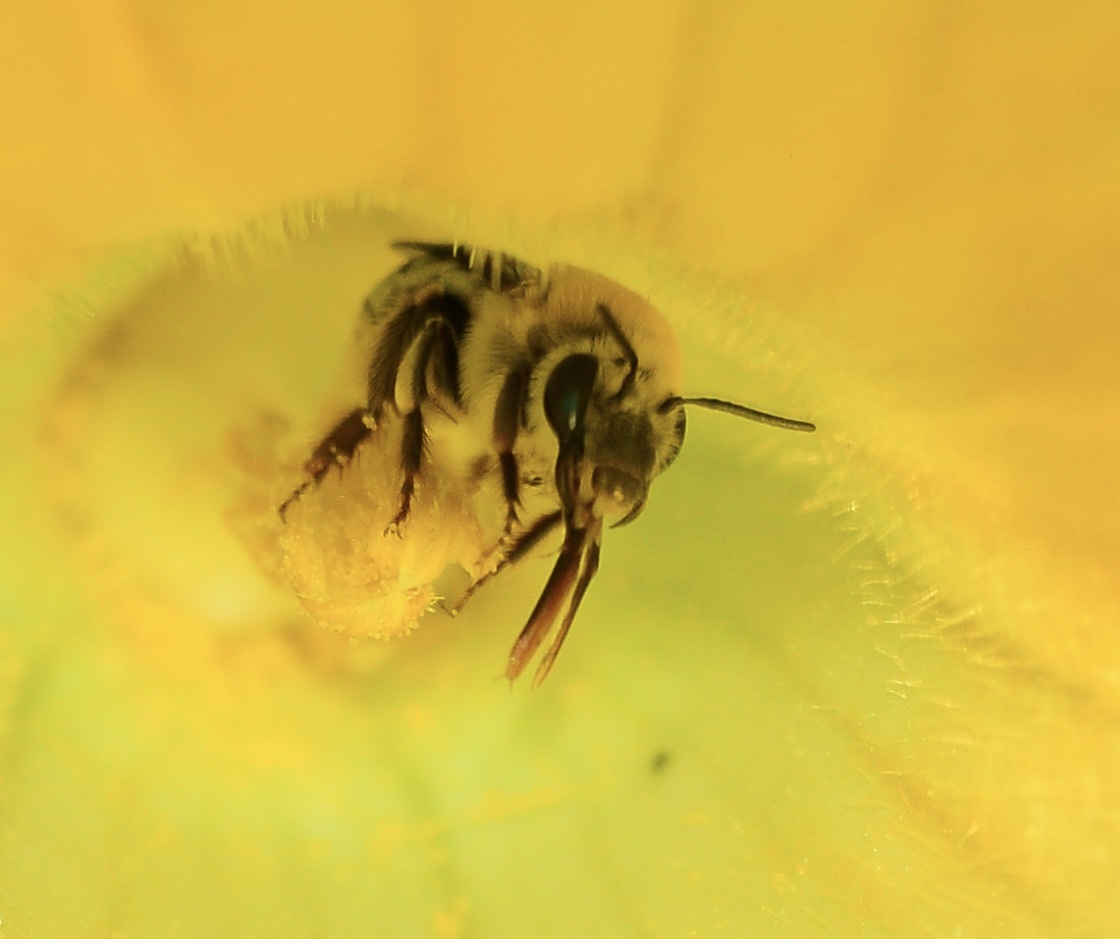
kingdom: Animalia
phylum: Arthropoda
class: Insecta
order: Hymenoptera
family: Apidae
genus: Peponapis
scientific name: Peponapis pruinosa
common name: Pruinose squash bee
